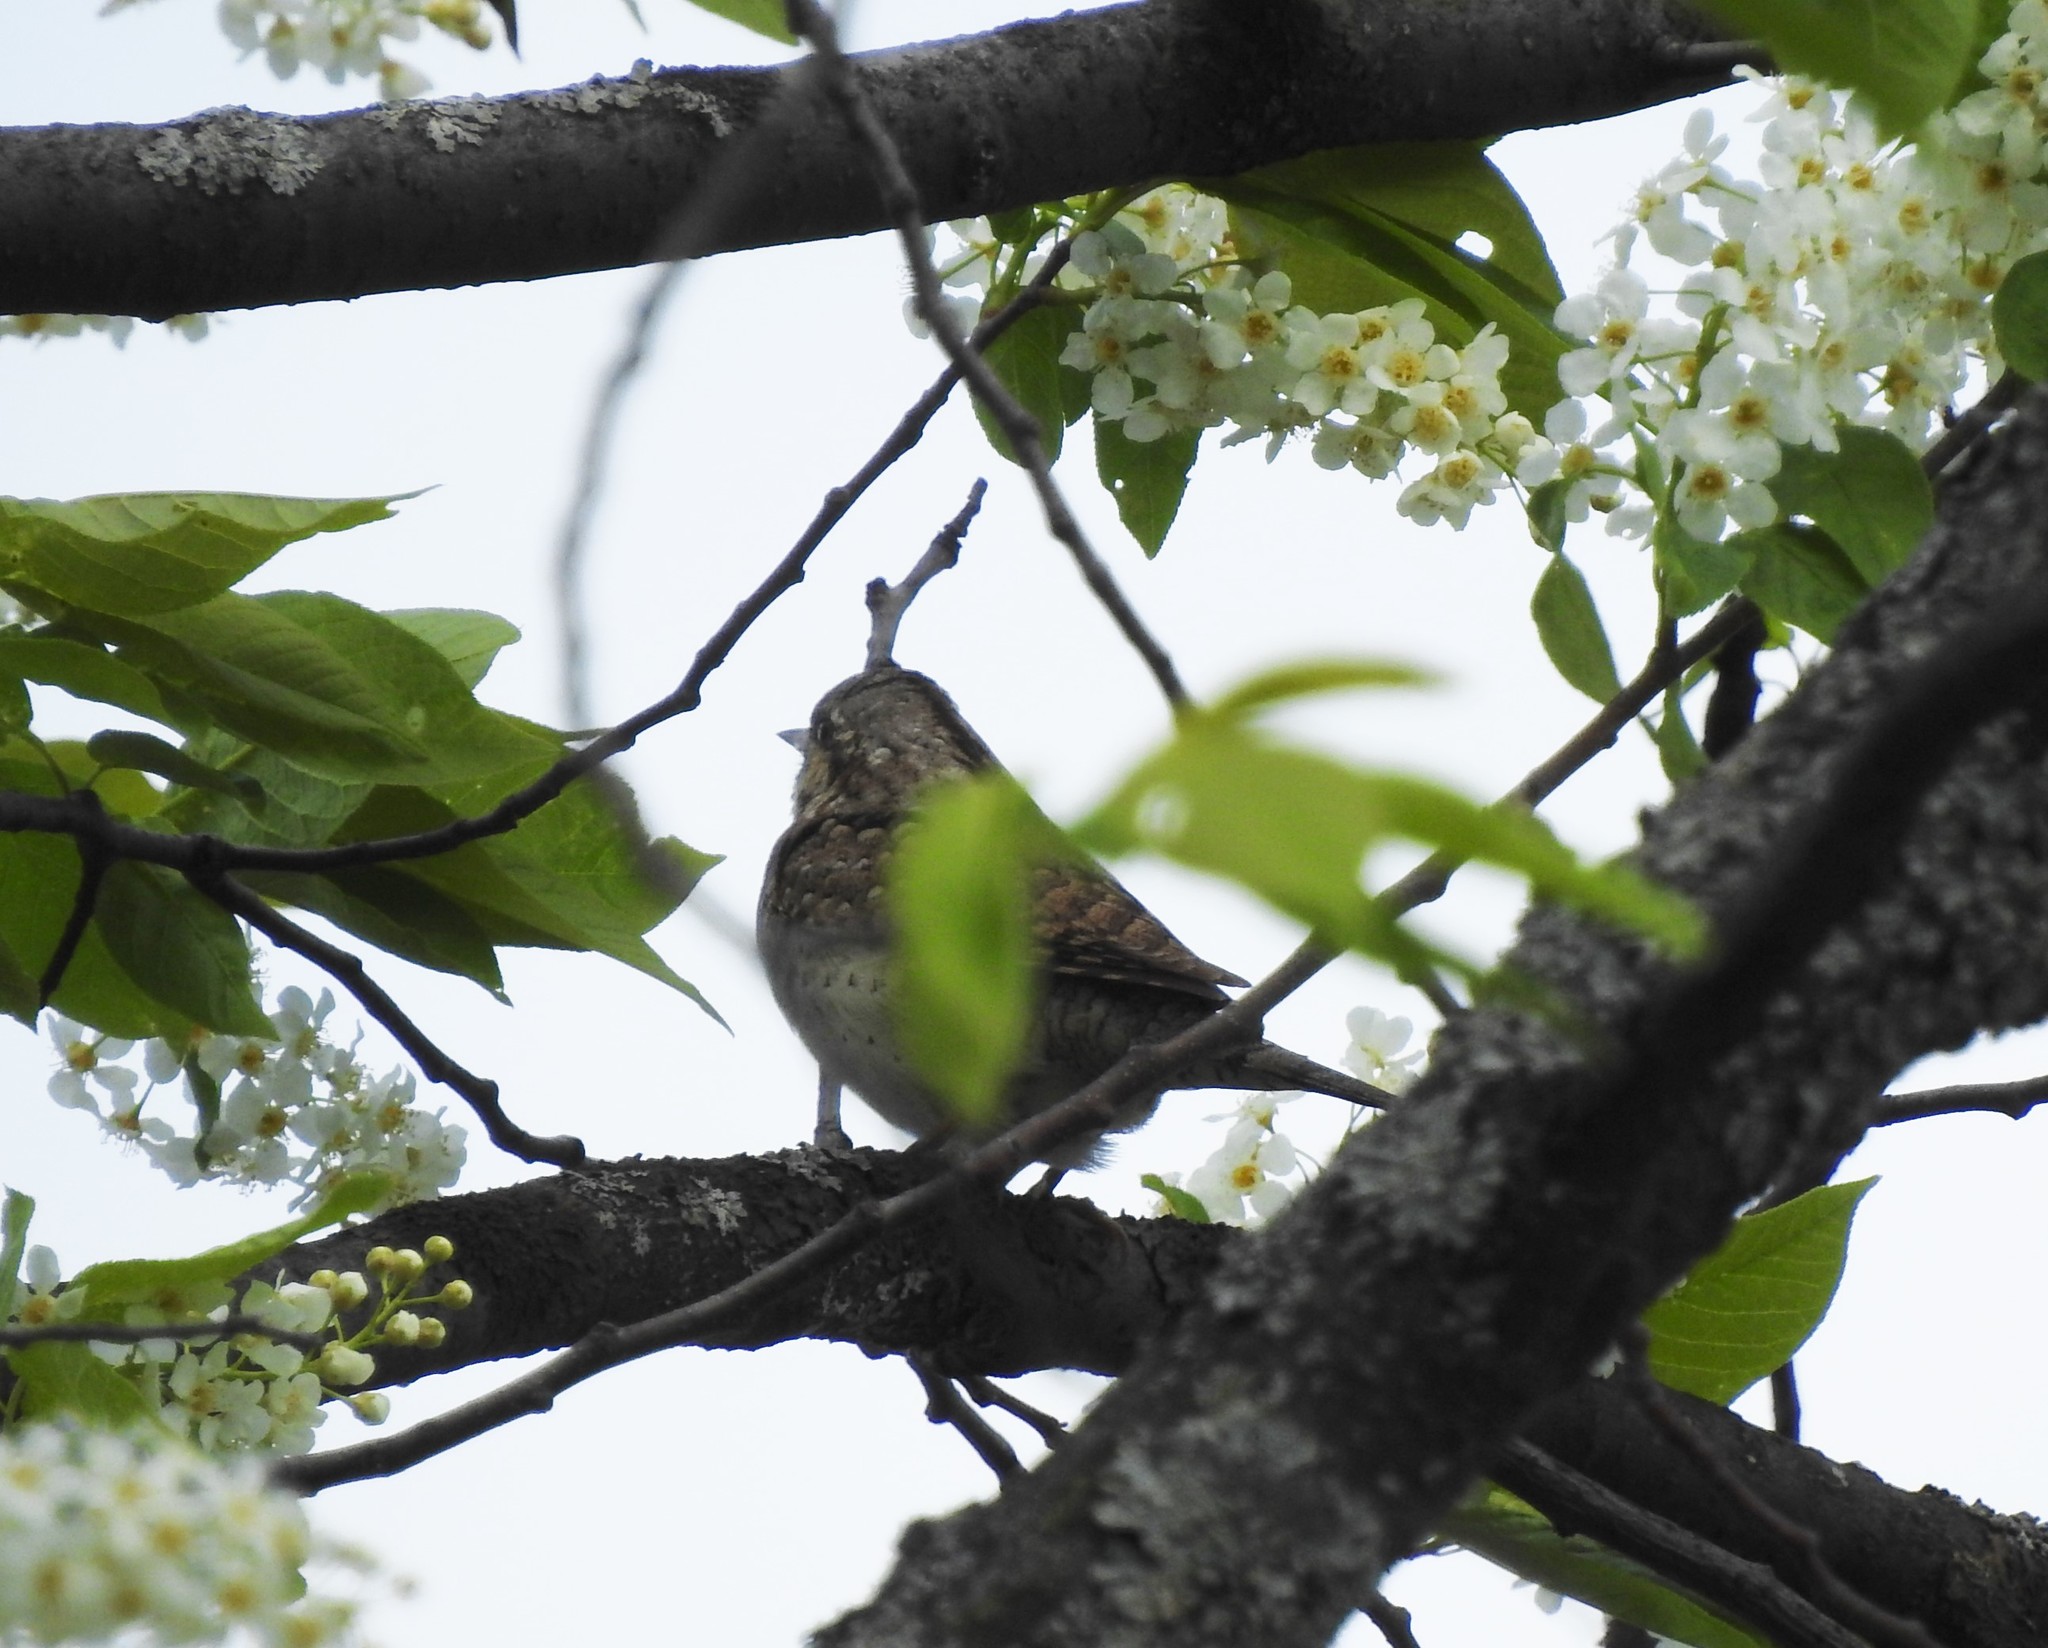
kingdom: Animalia
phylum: Chordata
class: Aves
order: Piciformes
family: Picidae
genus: Jynx
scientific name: Jynx torquilla
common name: Eurasian wryneck
